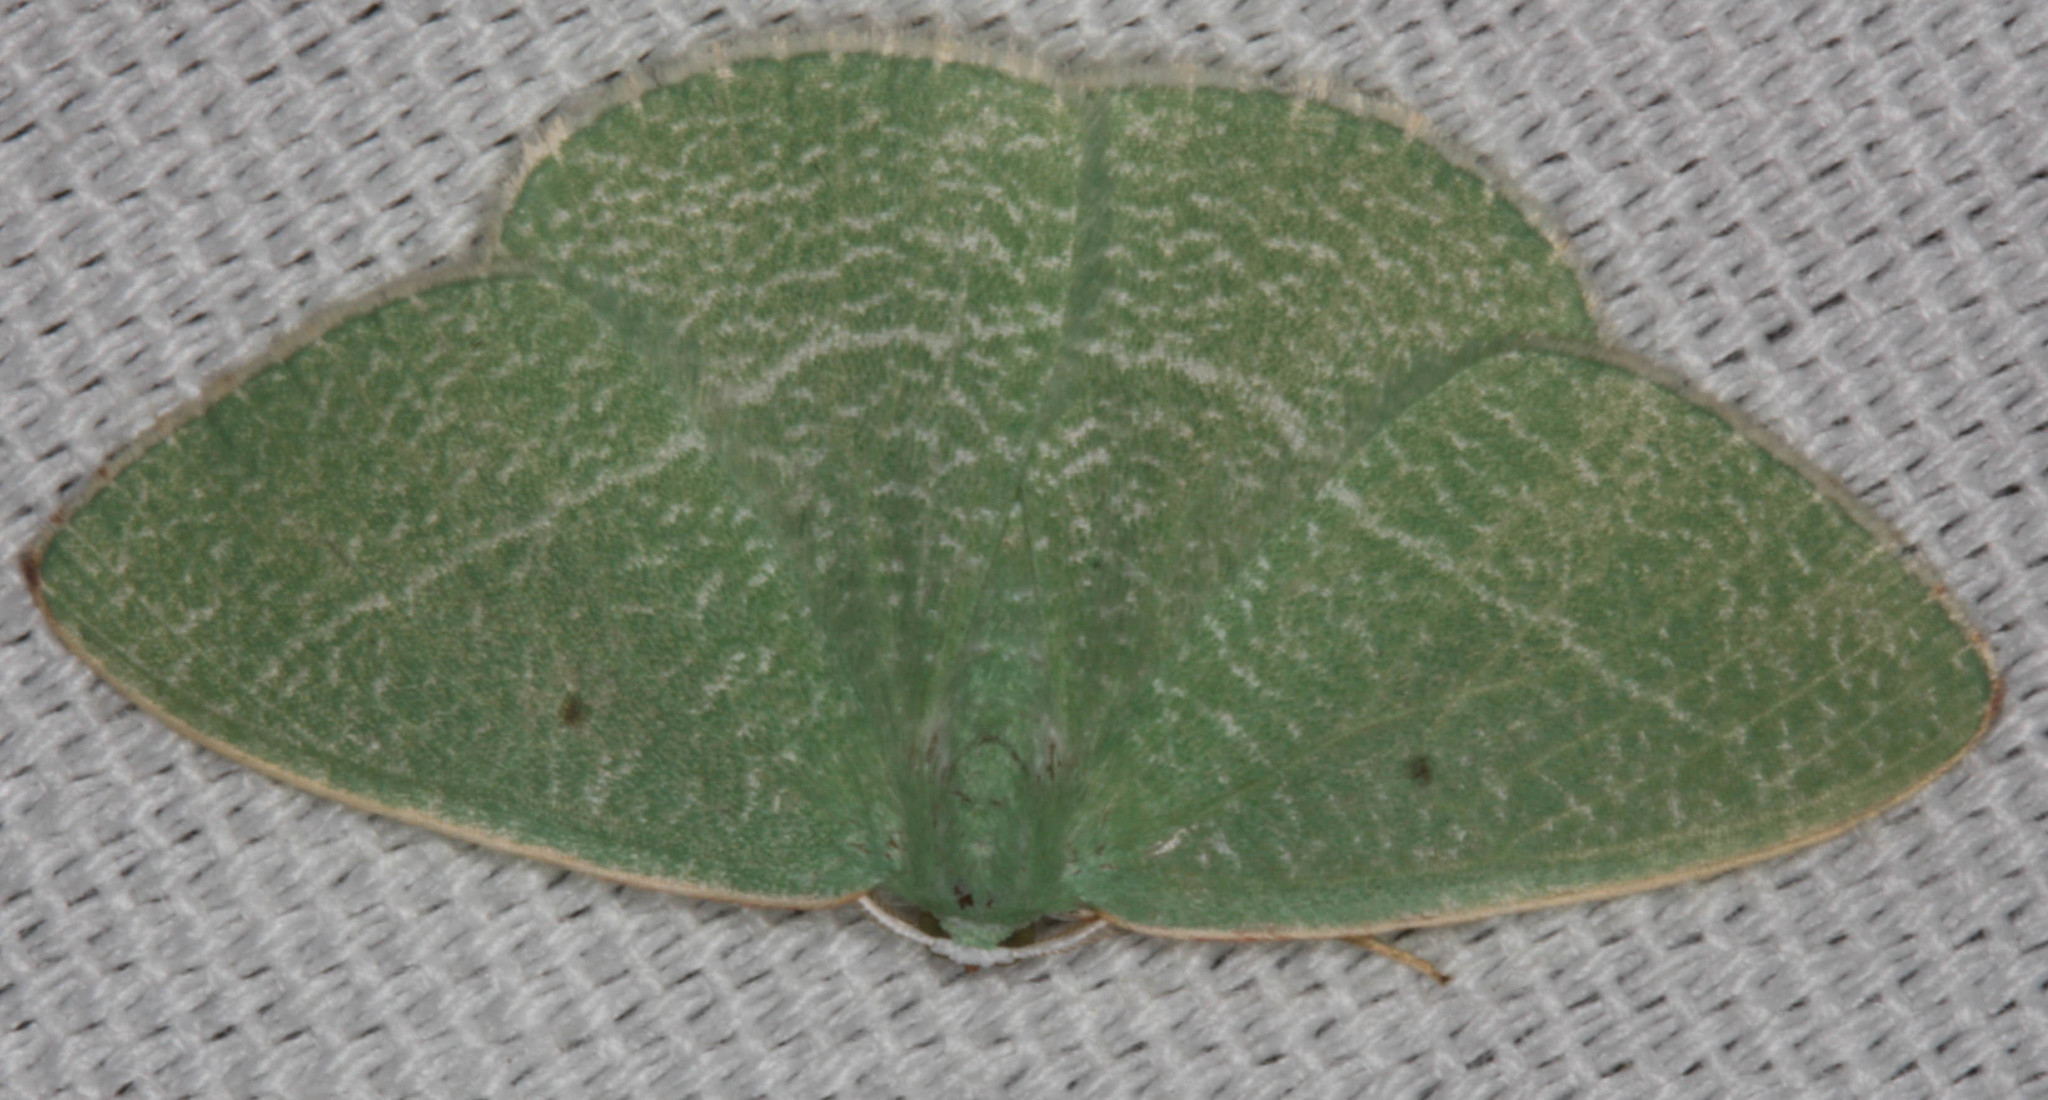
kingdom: Animalia
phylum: Arthropoda
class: Insecta
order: Lepidoptera
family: Geometridae
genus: Nemoria
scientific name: Nemoria pistaciaria
